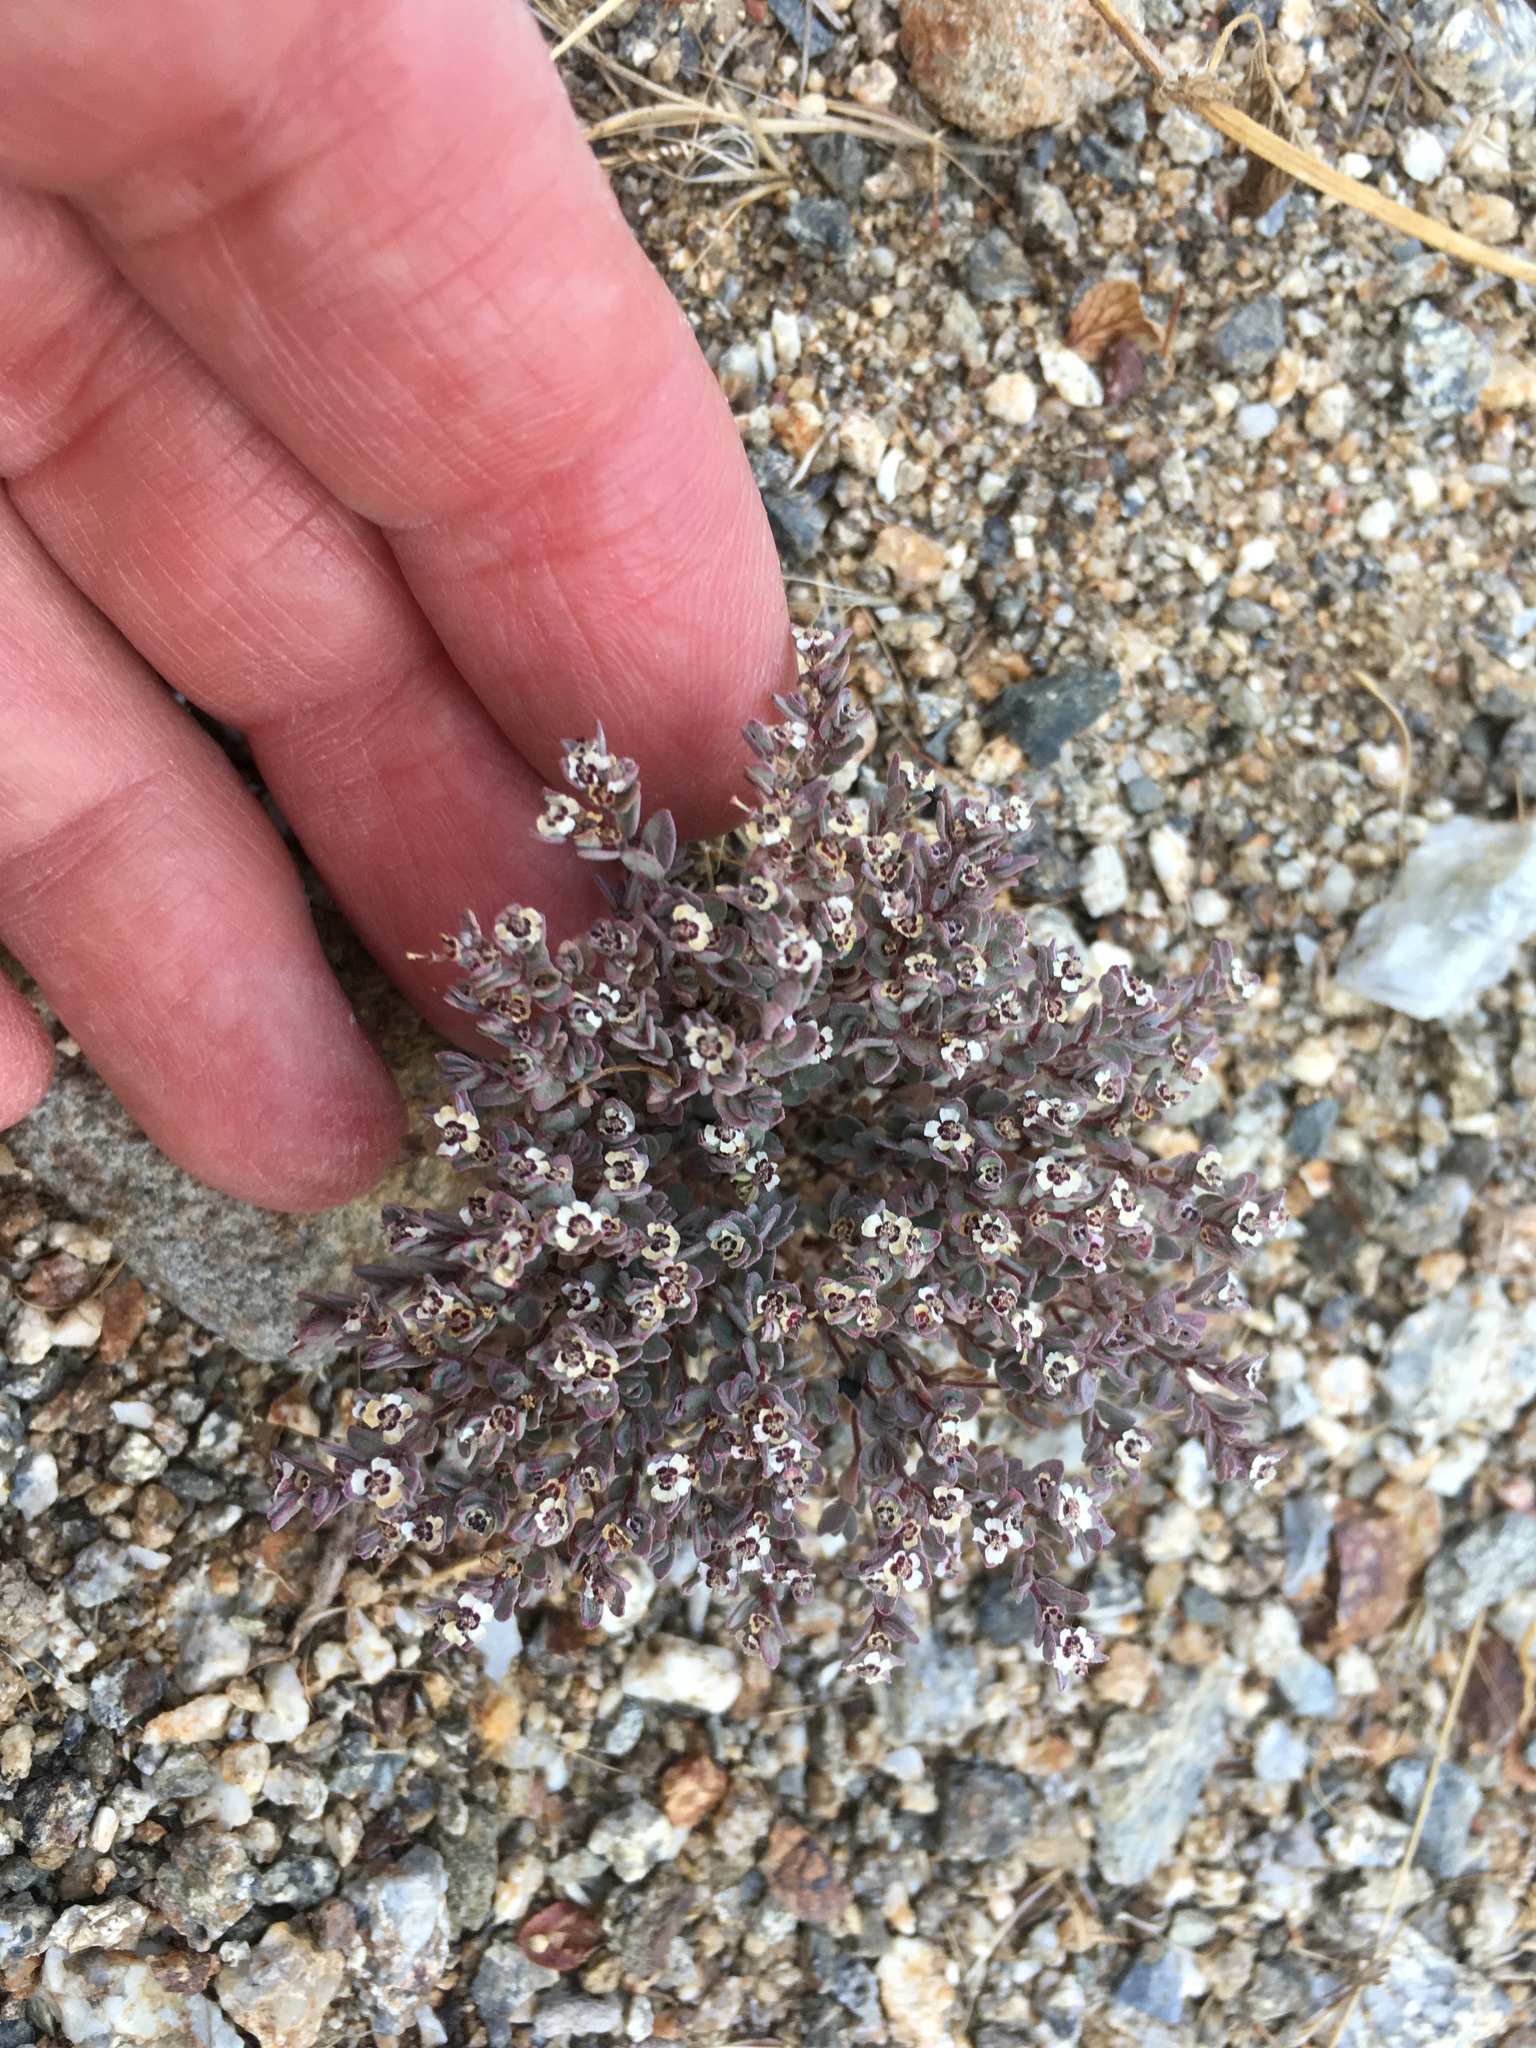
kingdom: Plantae
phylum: Tracheophyta
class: Magnoliopsida
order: Malpighiales
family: Euphorbiaceae
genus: Euphorbia
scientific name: Euphorbia melanadenia
